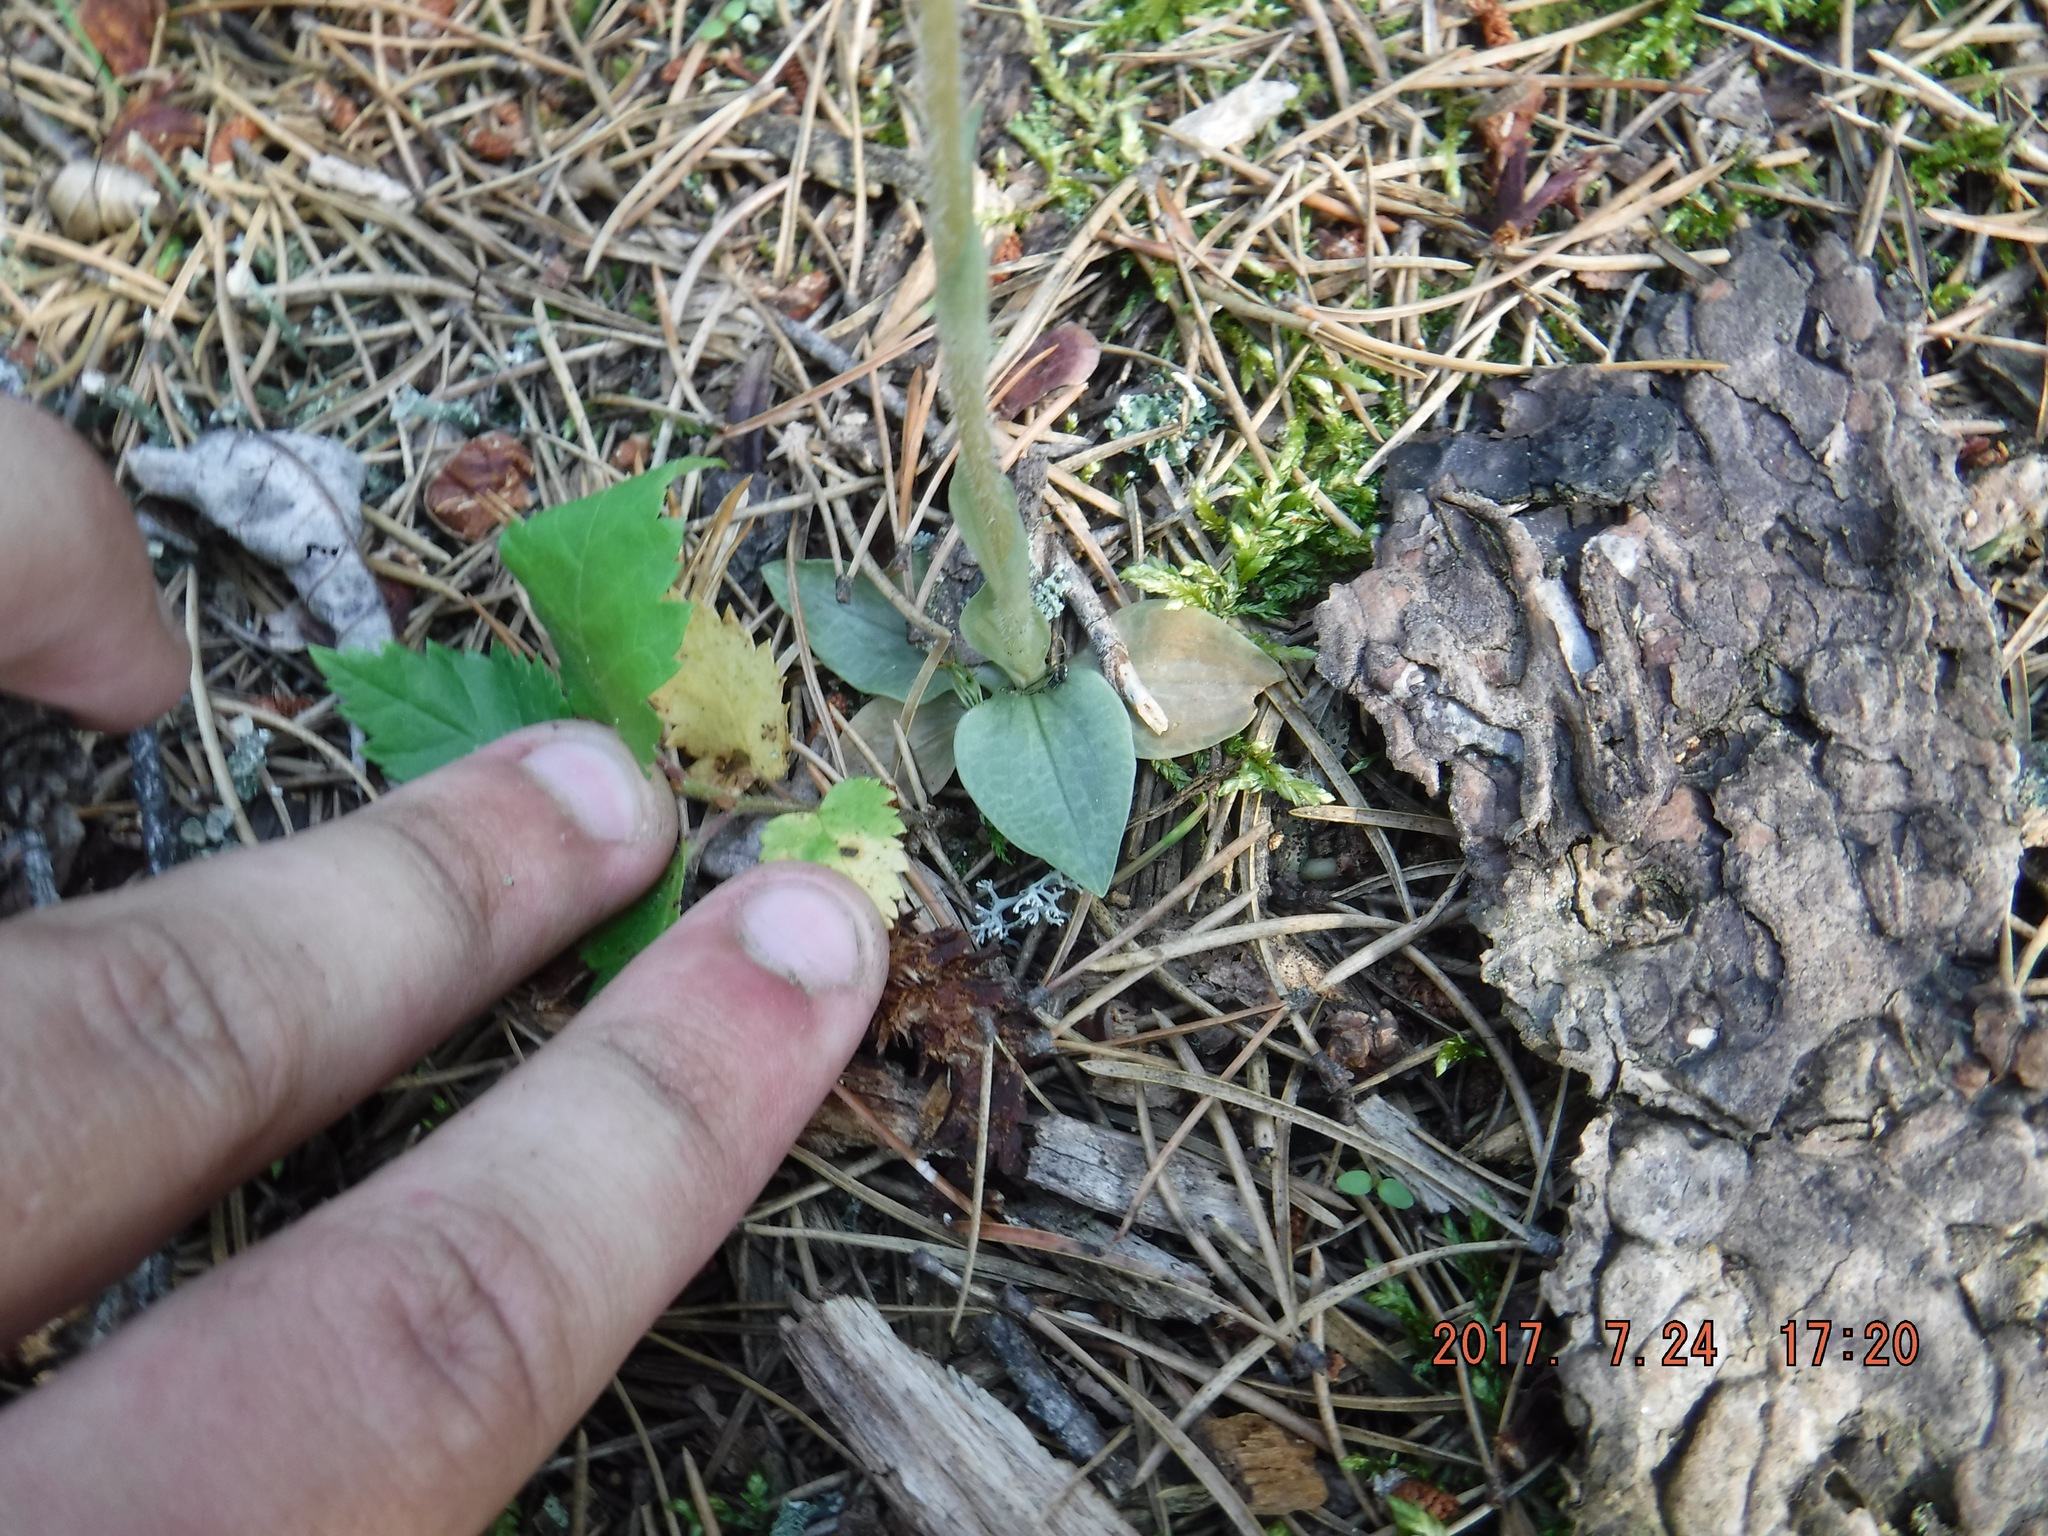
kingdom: Plantae
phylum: Tracheophyta
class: Liliopsida
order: Asparagales
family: Orchidaceae
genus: Goodyera
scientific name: Goodyera tesselata
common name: Checkered rattlesnake-plantain
